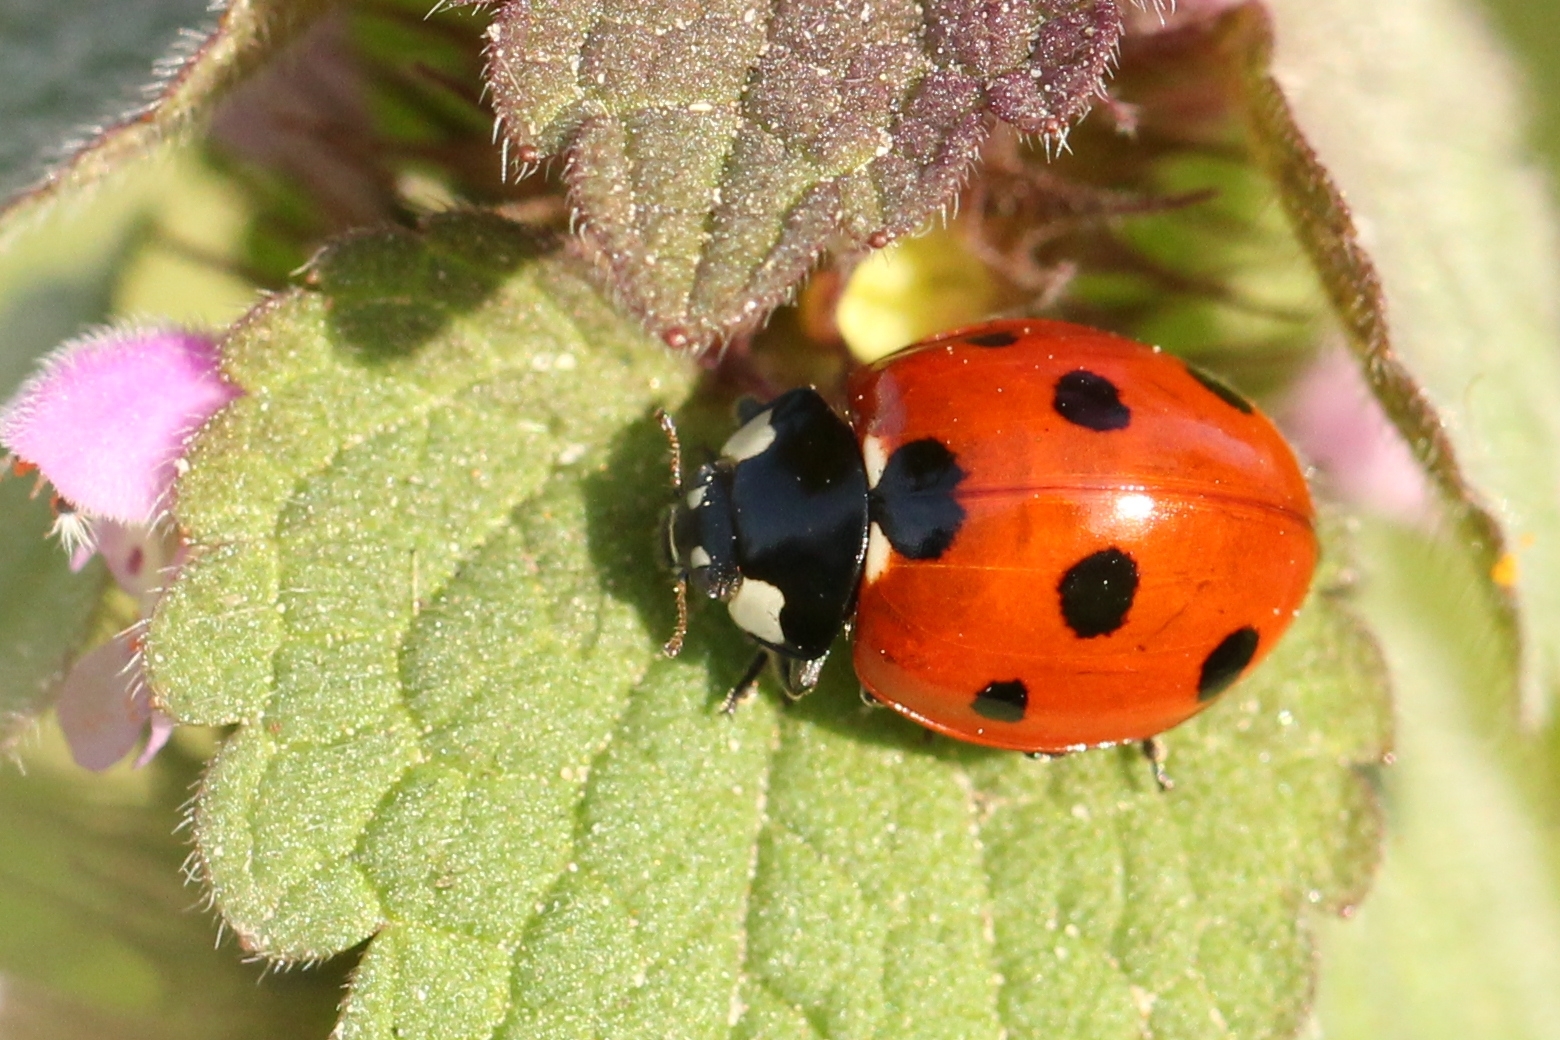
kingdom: Animalia
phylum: Arthropoda
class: Insecta
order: Coleoptera
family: Coccinellidae
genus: Coccinella
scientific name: Coccinella septempunctata
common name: Sevenspotted lady beetle
